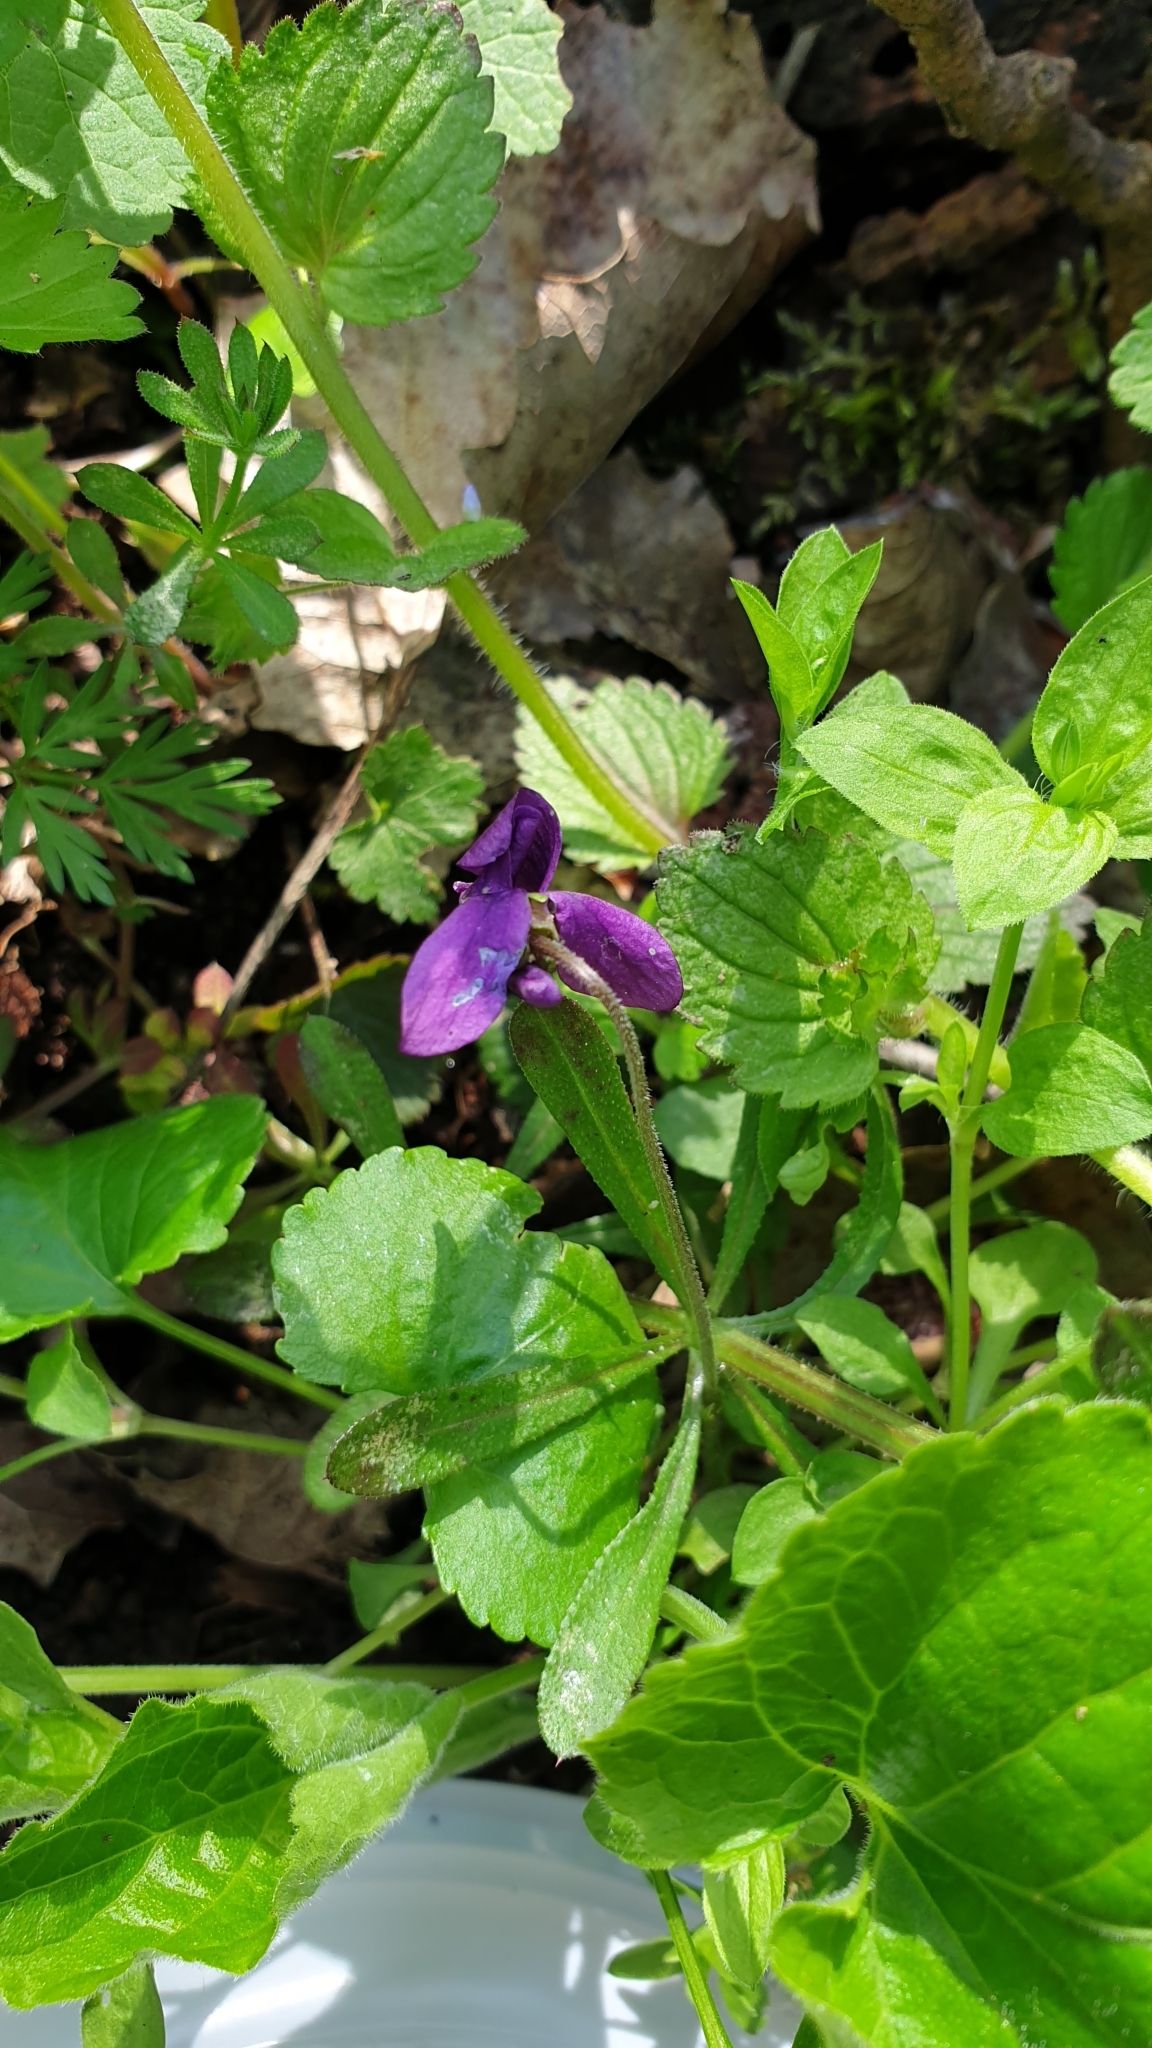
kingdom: Plantae
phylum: Tracheophyta
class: Magnoliopsida
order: Malpighiales
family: Violaceae
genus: Viola
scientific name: Viola odorata
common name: Sweet violet
